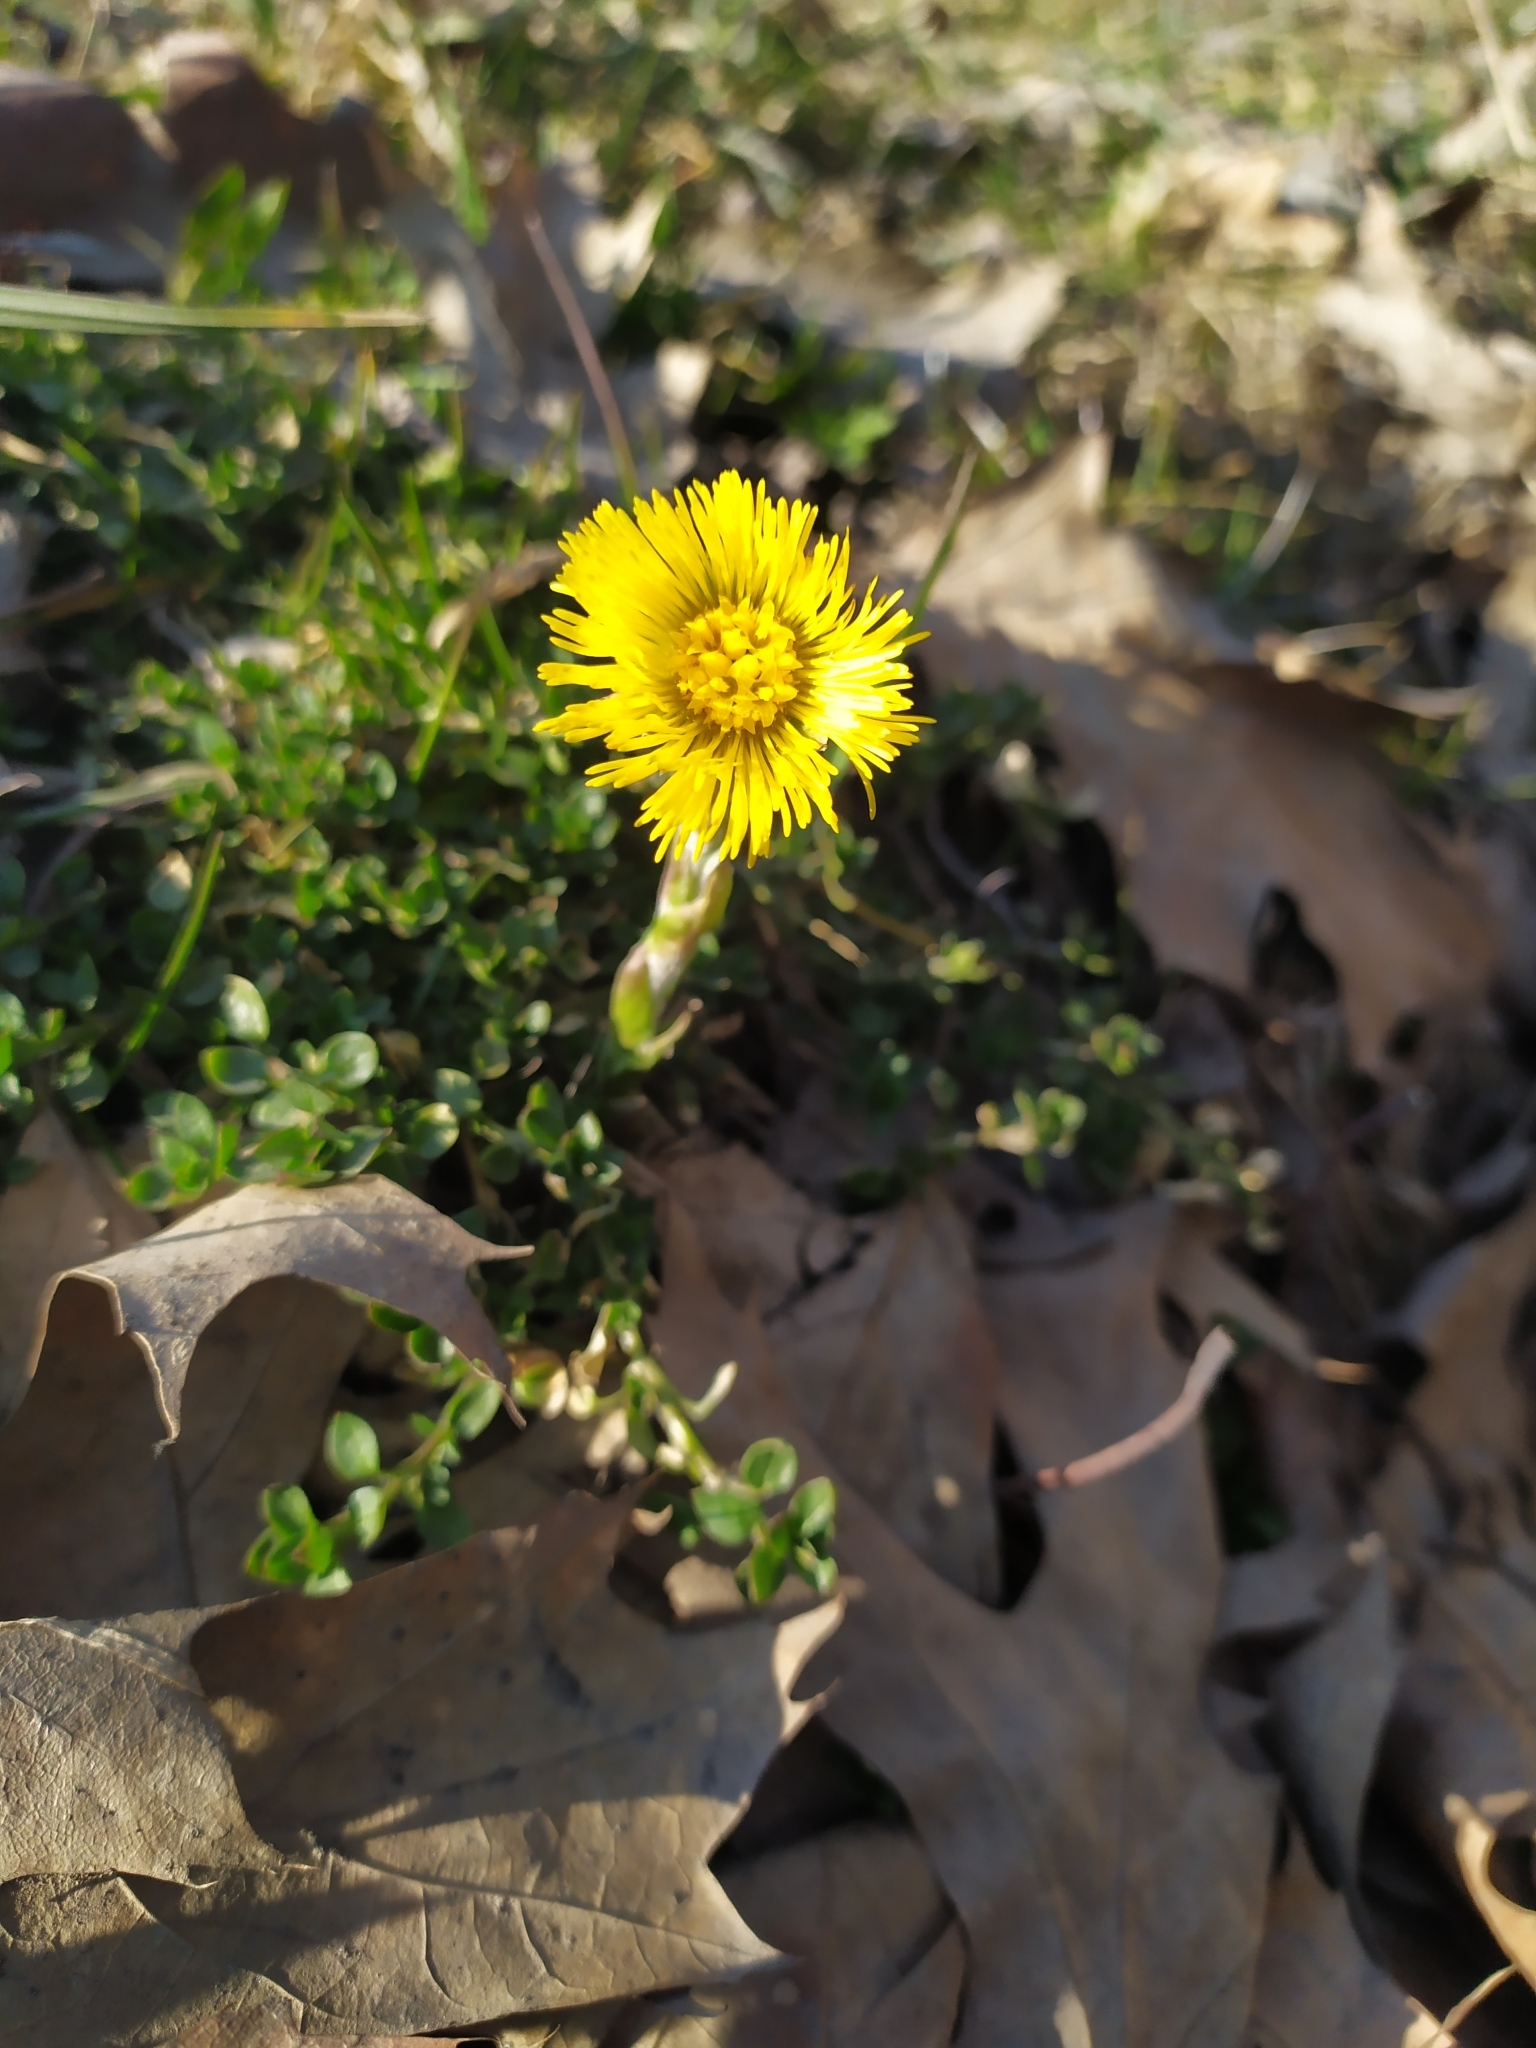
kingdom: Plantae
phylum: Tracheophyta
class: Magnoliopsida
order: Asterales
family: Asteraceae
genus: Tussilago
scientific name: Tussilago farfara
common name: Coltsfoot
